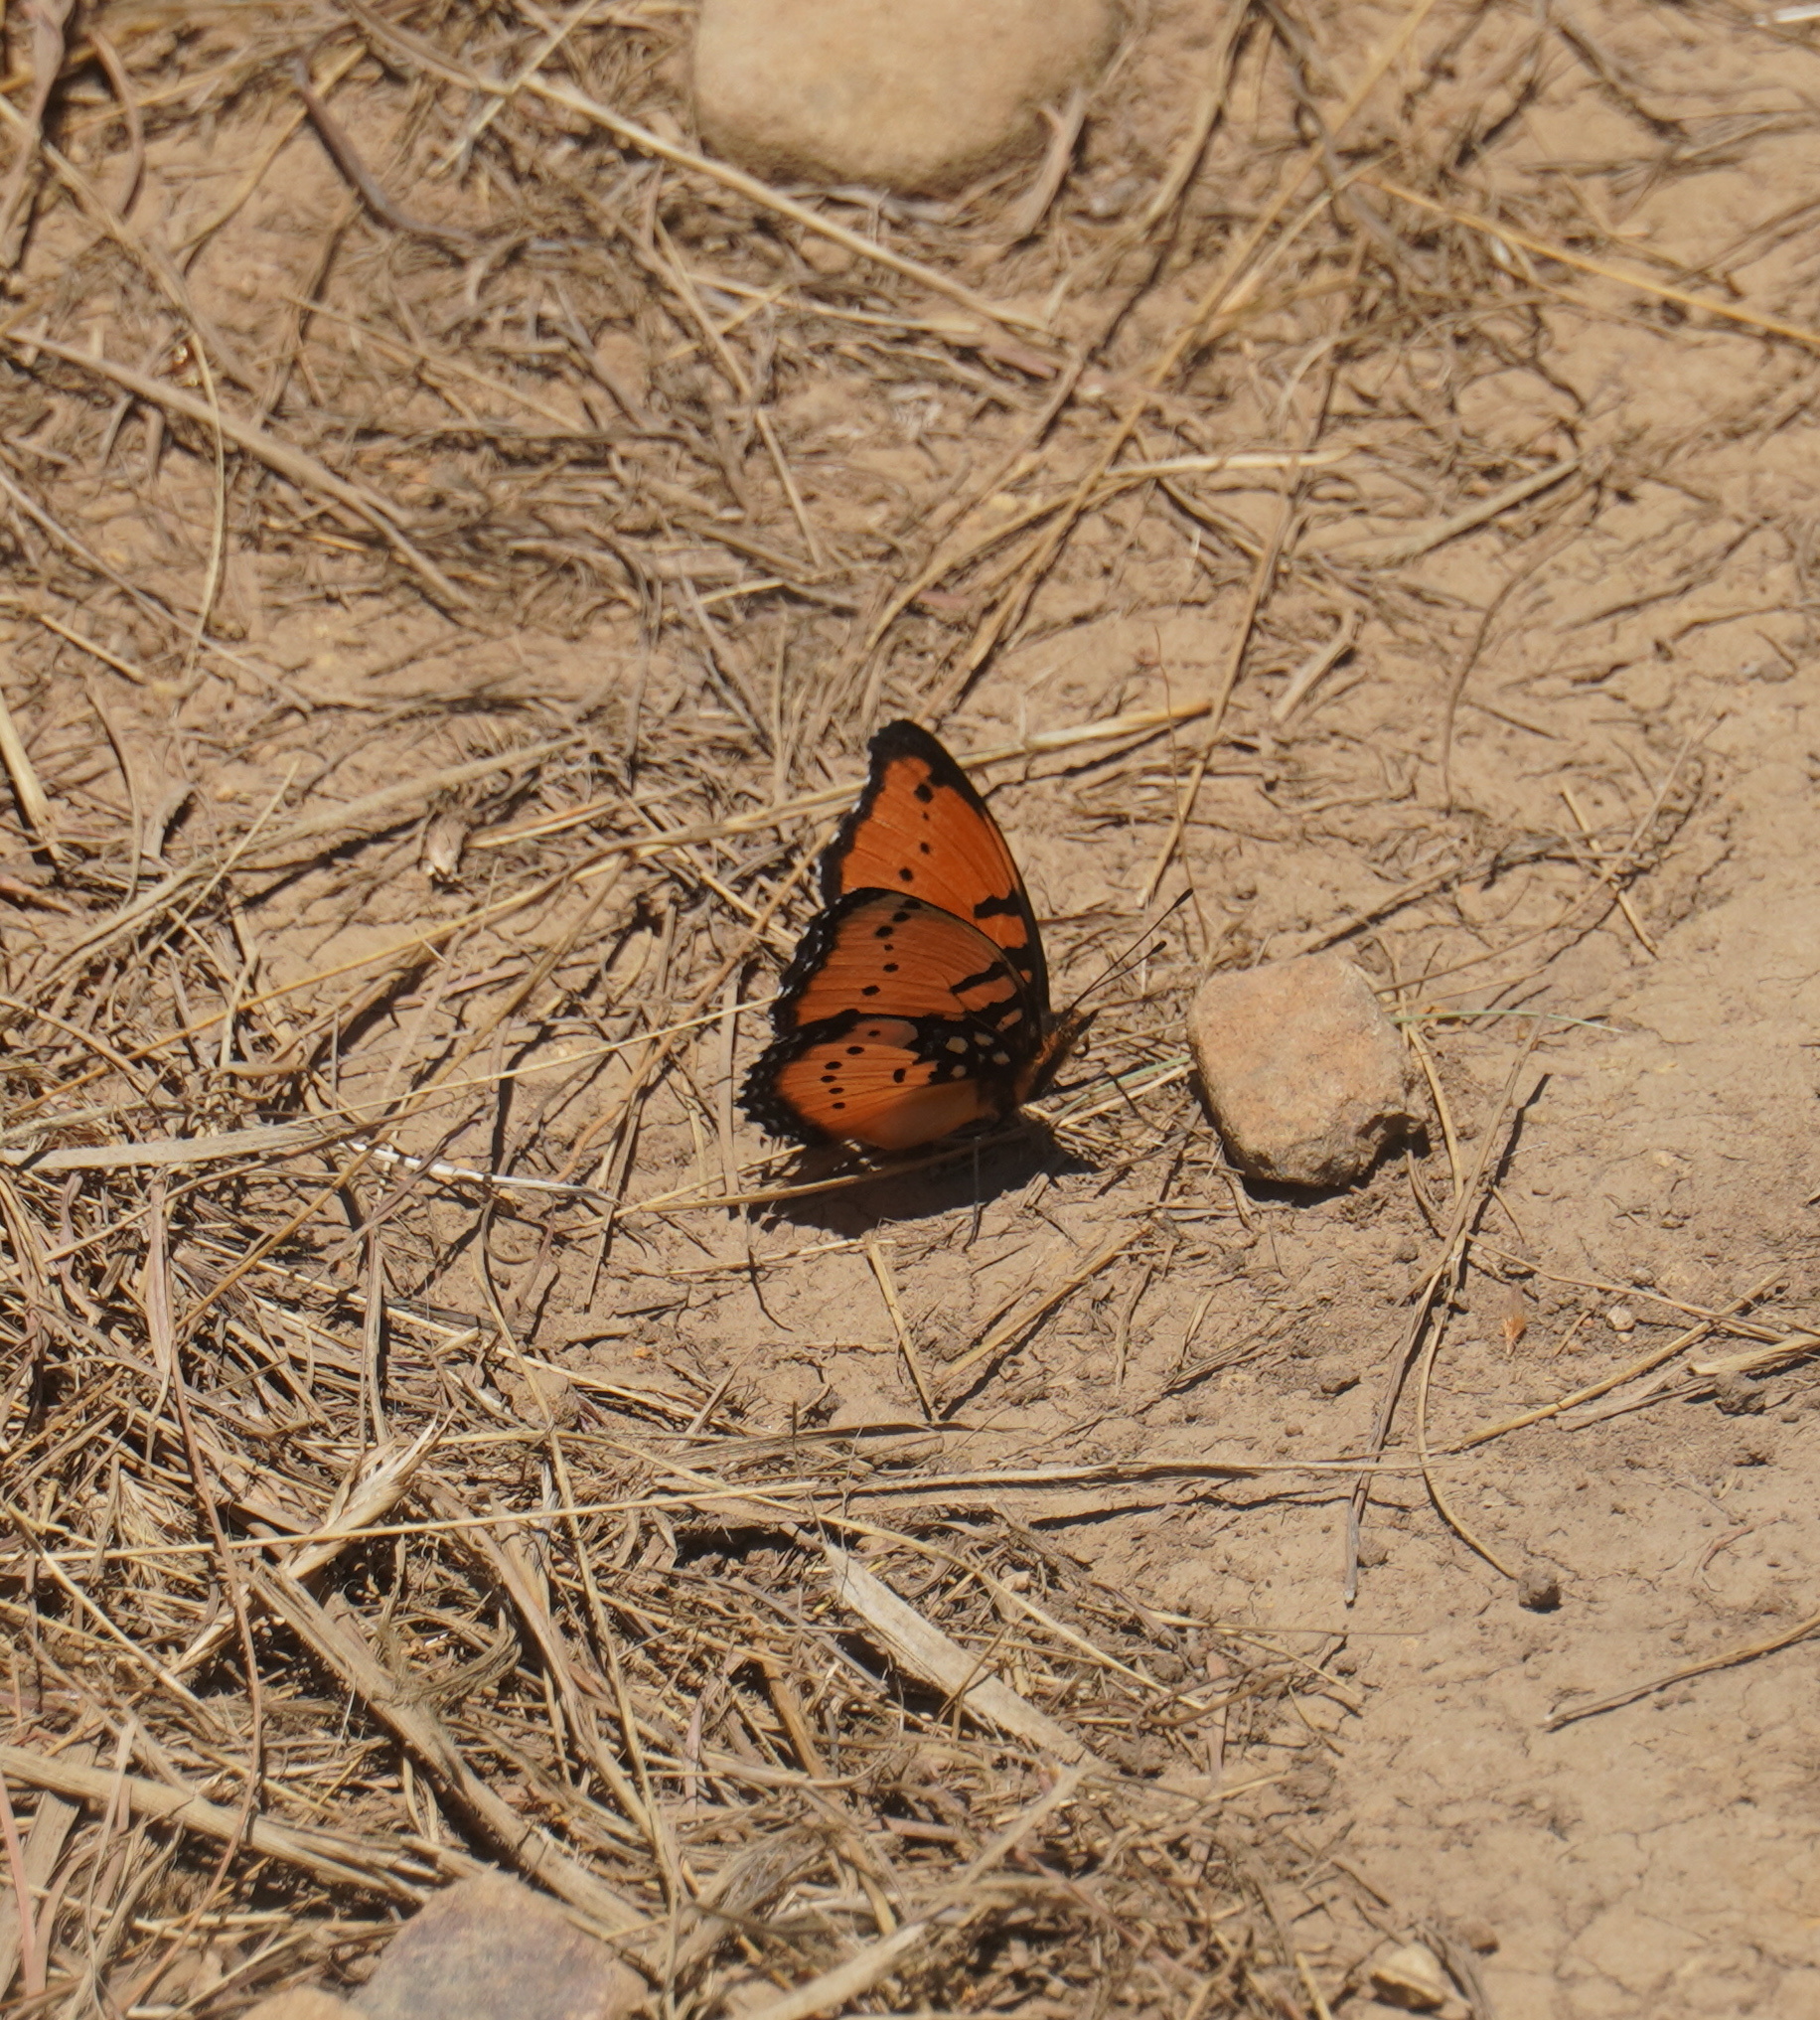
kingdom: Animalia
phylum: Arthropoda
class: Insecta
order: Lepidoptera
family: Nymphalidae
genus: Precis
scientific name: Precis octavia
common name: Gaudy commodore
